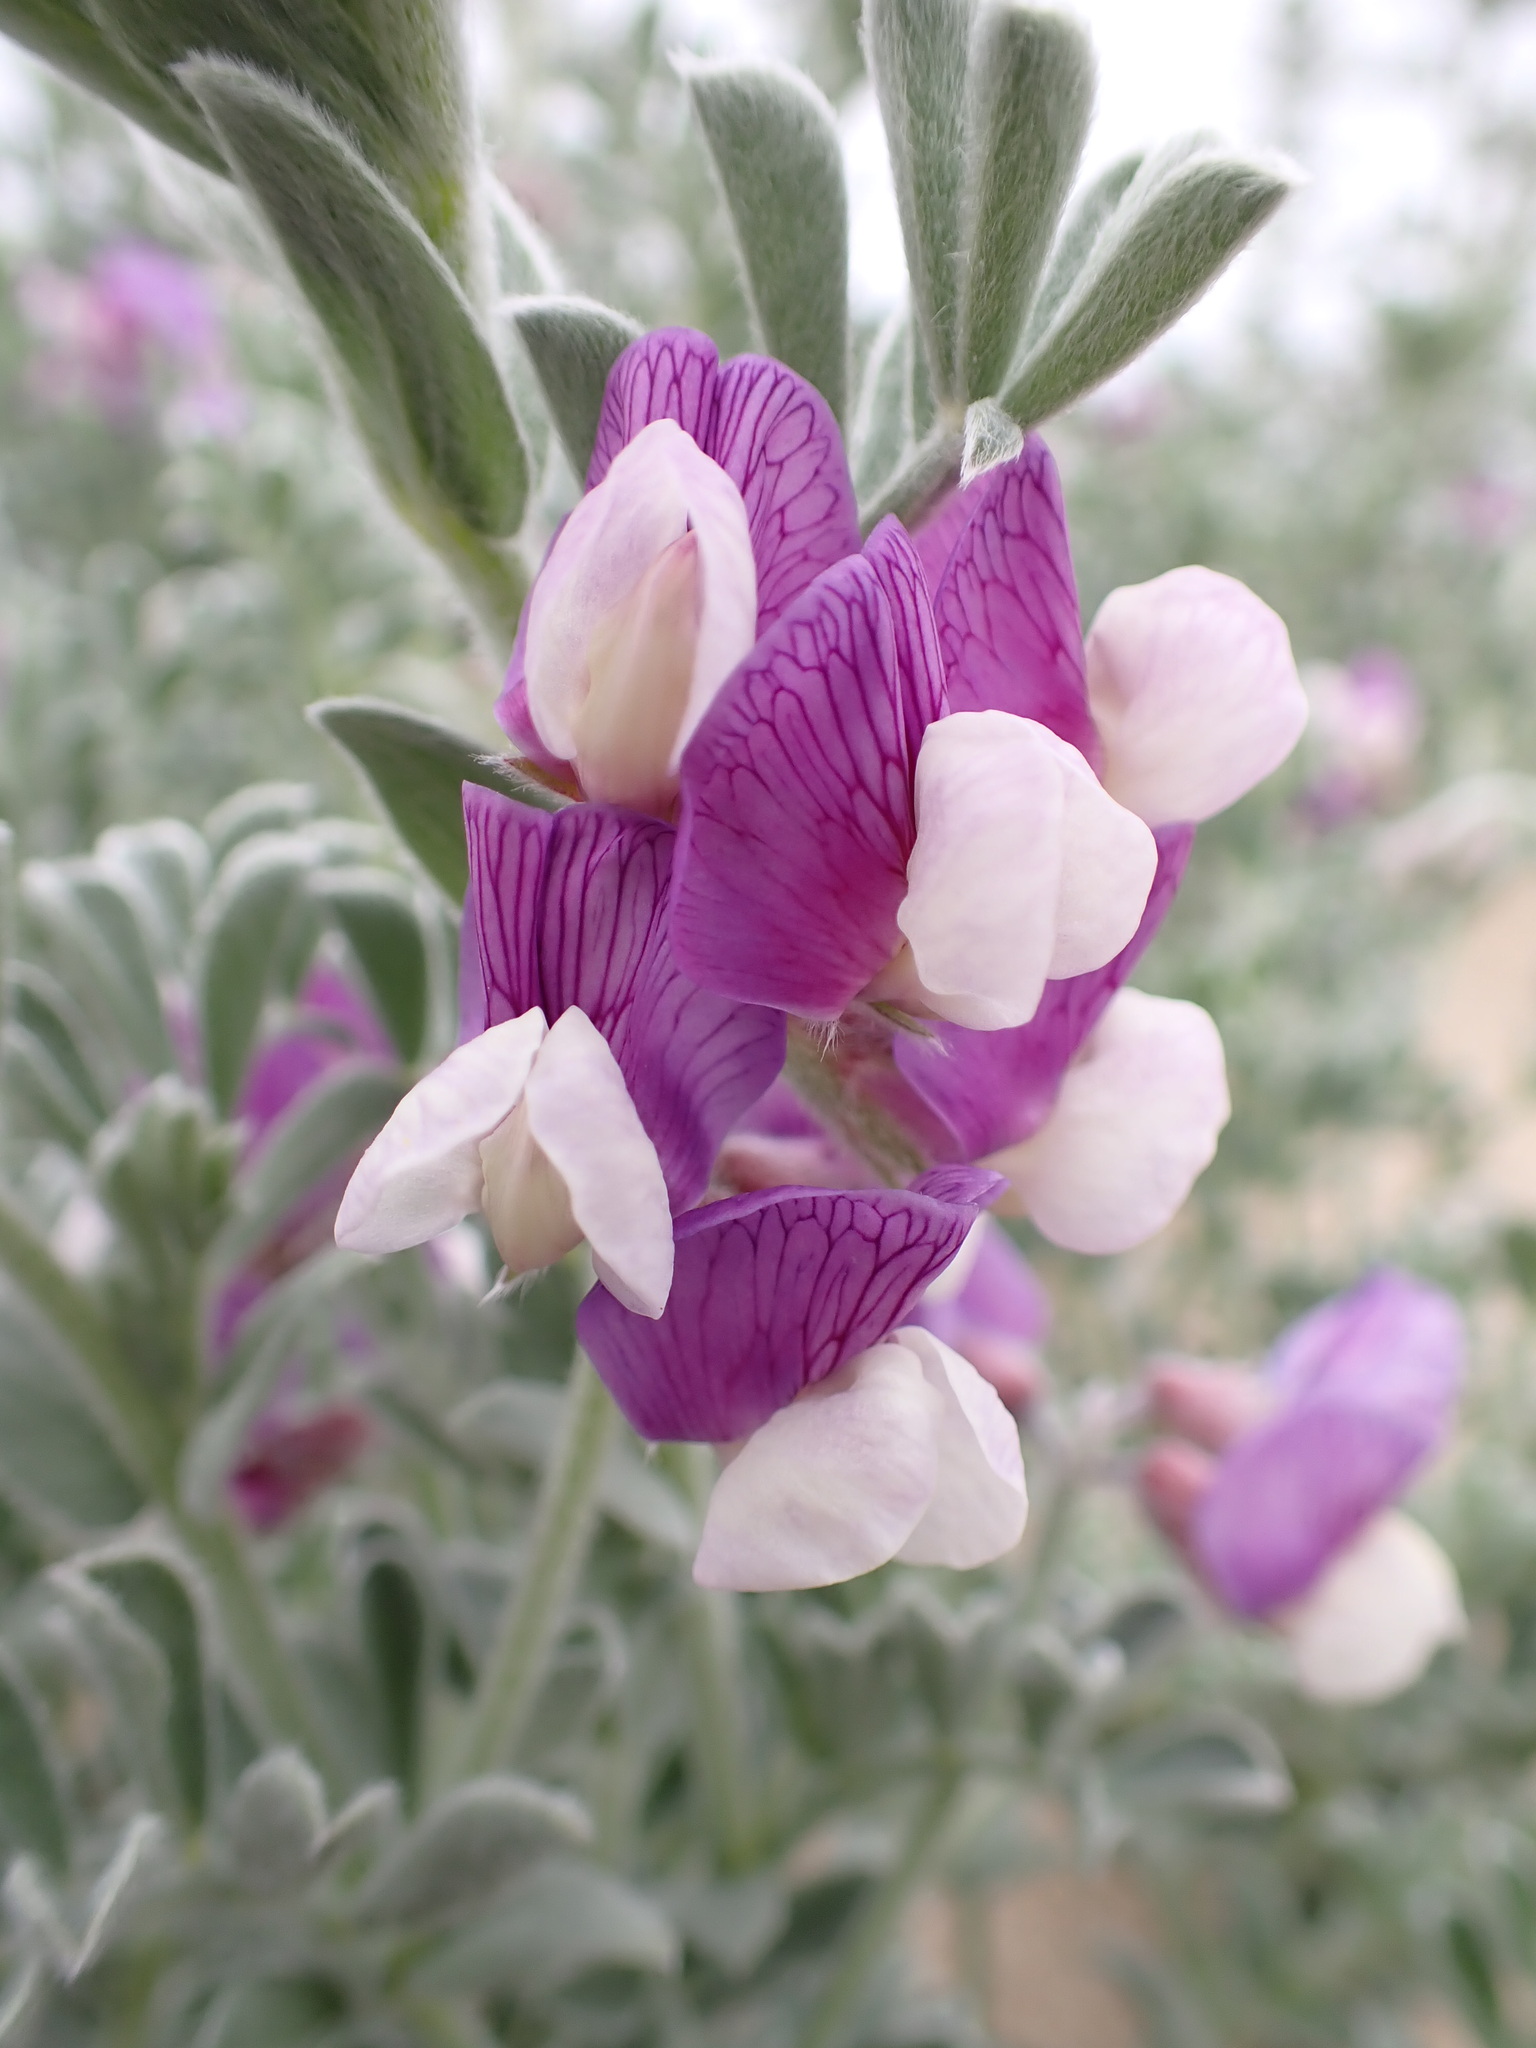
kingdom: Plantae
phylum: Tracheophyta
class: Magnoliopsida
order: Fabales
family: Fabaceae
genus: Lathyrus
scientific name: Lathyrus littoralis
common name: Dune sweet pea
